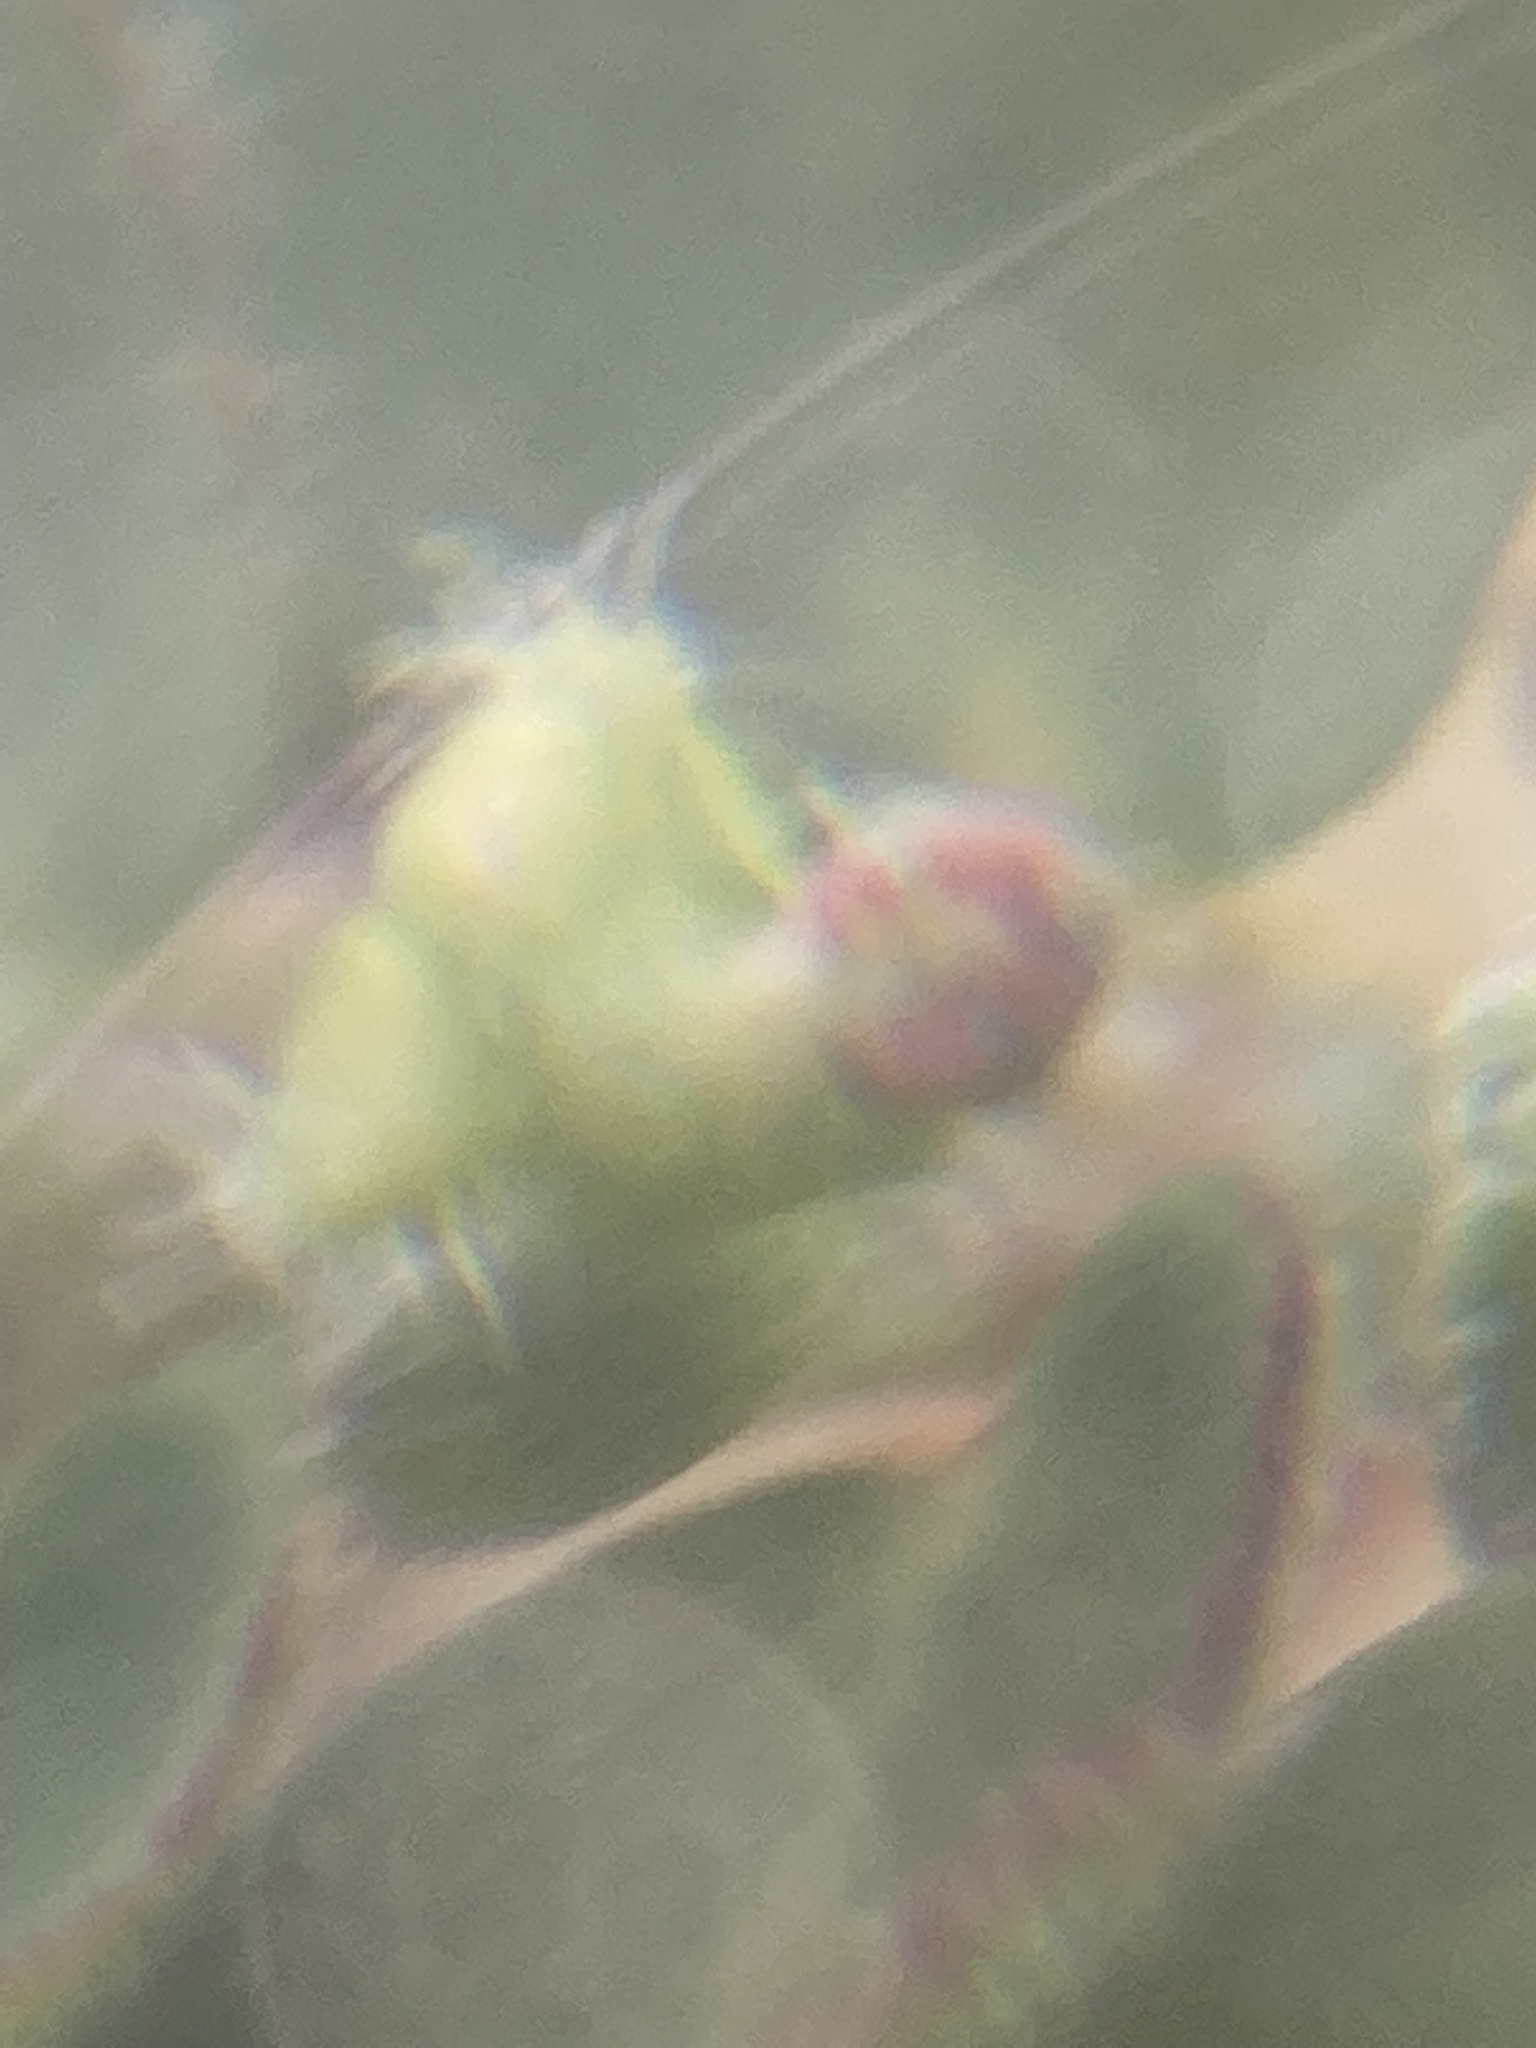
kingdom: Plantae
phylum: Tracheophyta
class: Magnoliopsida
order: Malpighiales
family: Euphorbiaceae
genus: Euphorbia
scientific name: Euphorbia prostrata
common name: Prostrate sandmat
